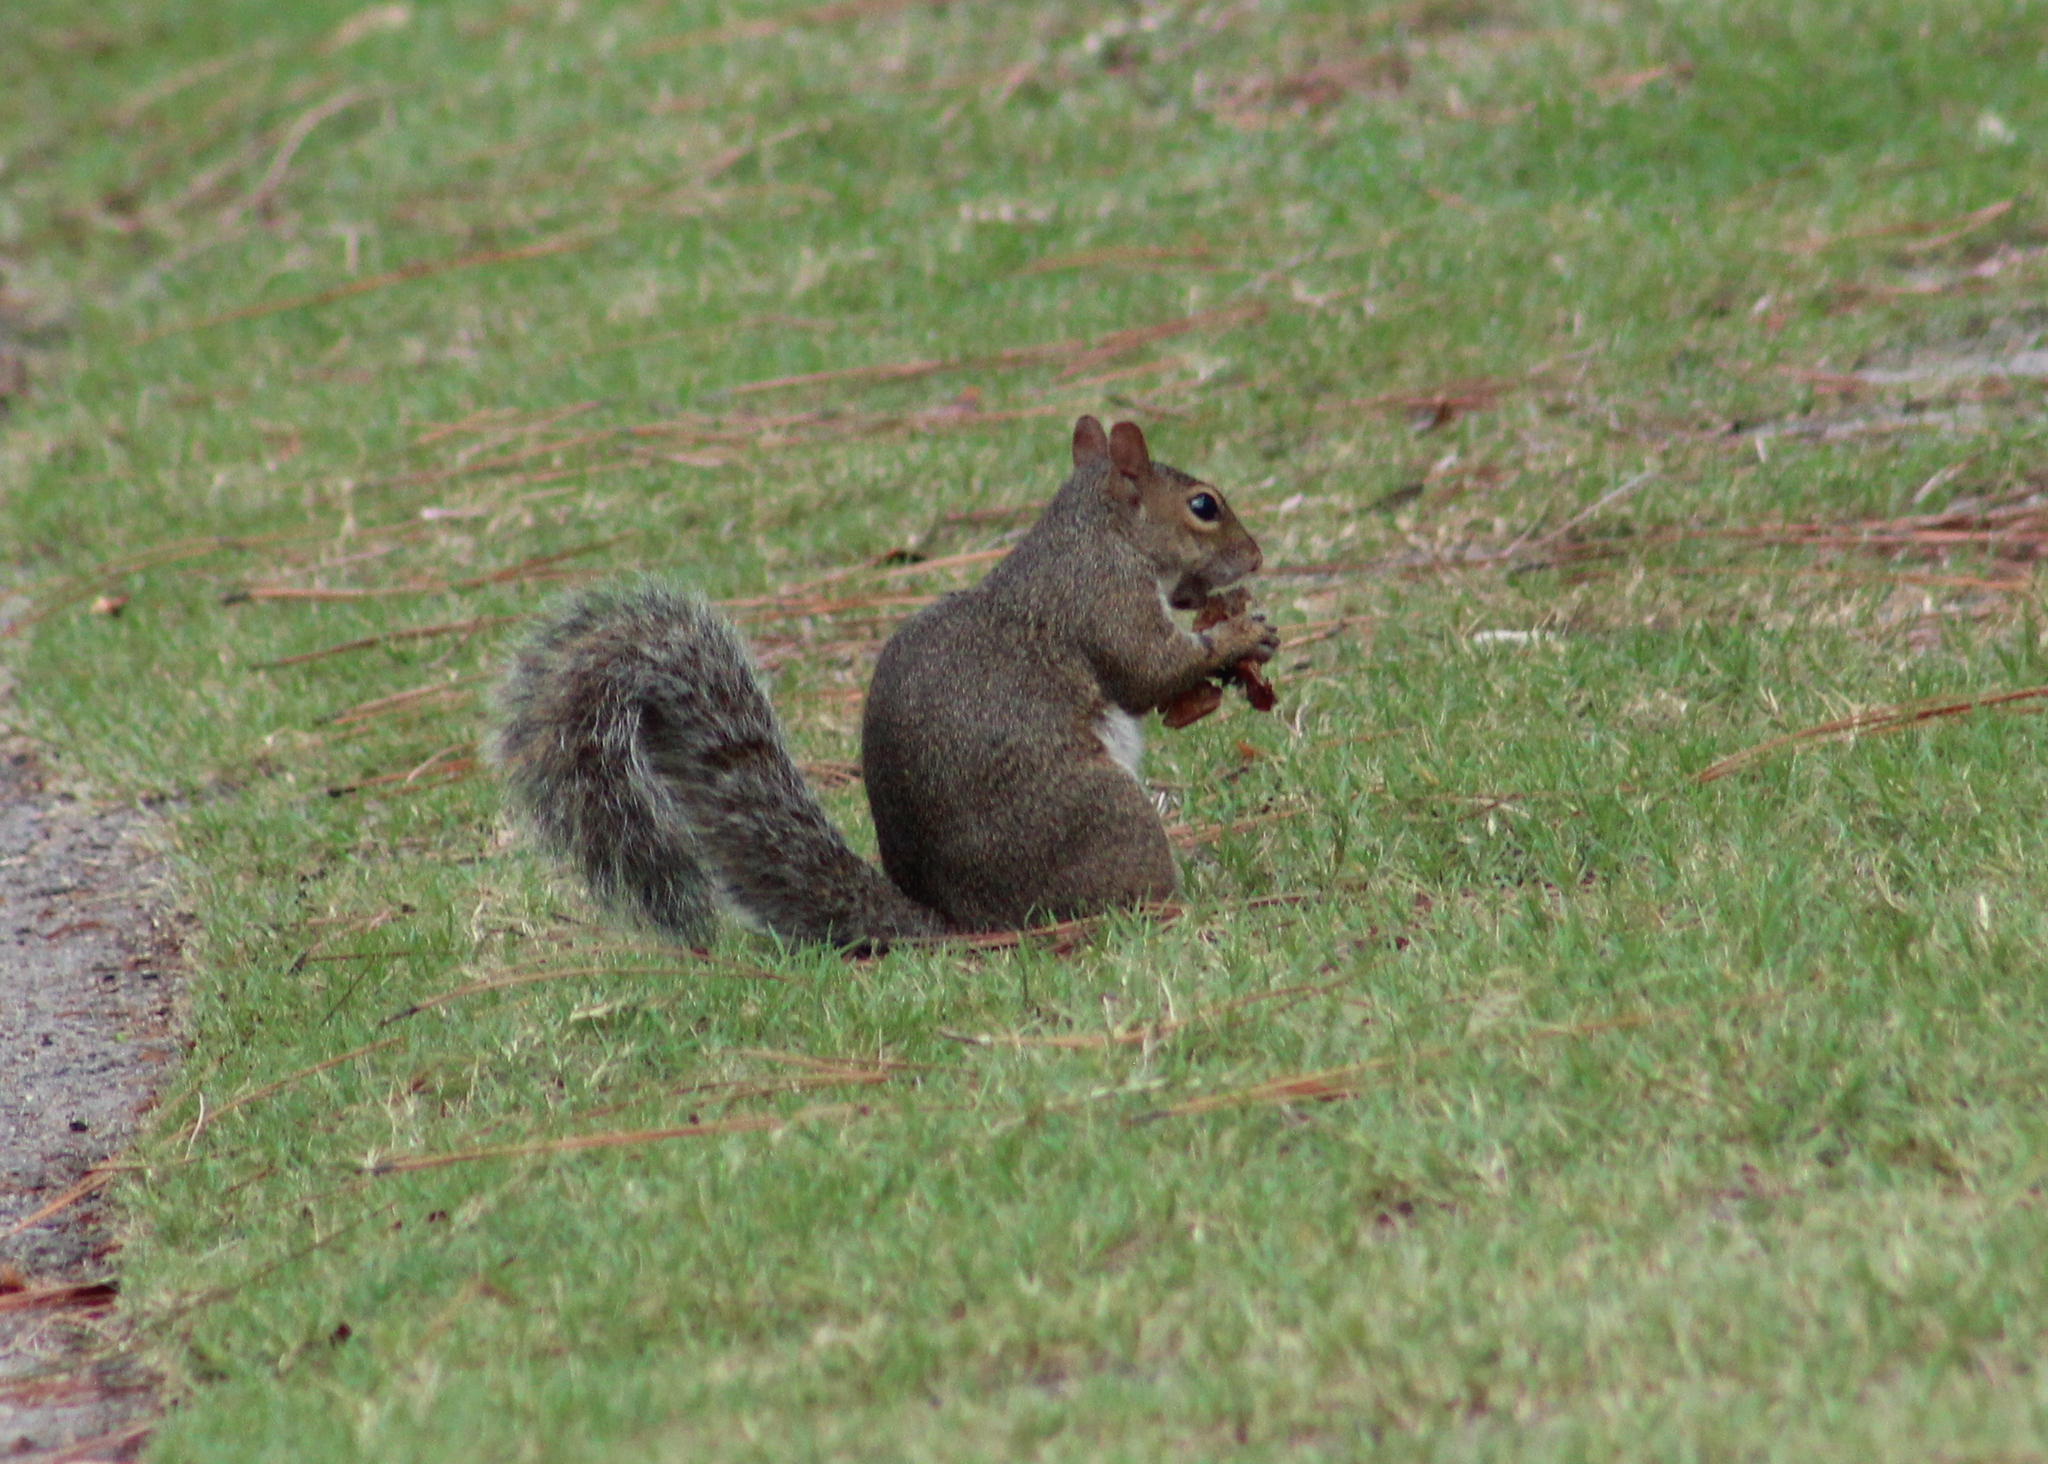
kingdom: Animalia
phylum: Chordata
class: Mammalia
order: Rodentia
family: Sciuridae
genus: Sciurus
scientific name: Sciurus carolinensis
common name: Eastern gray squirrel
